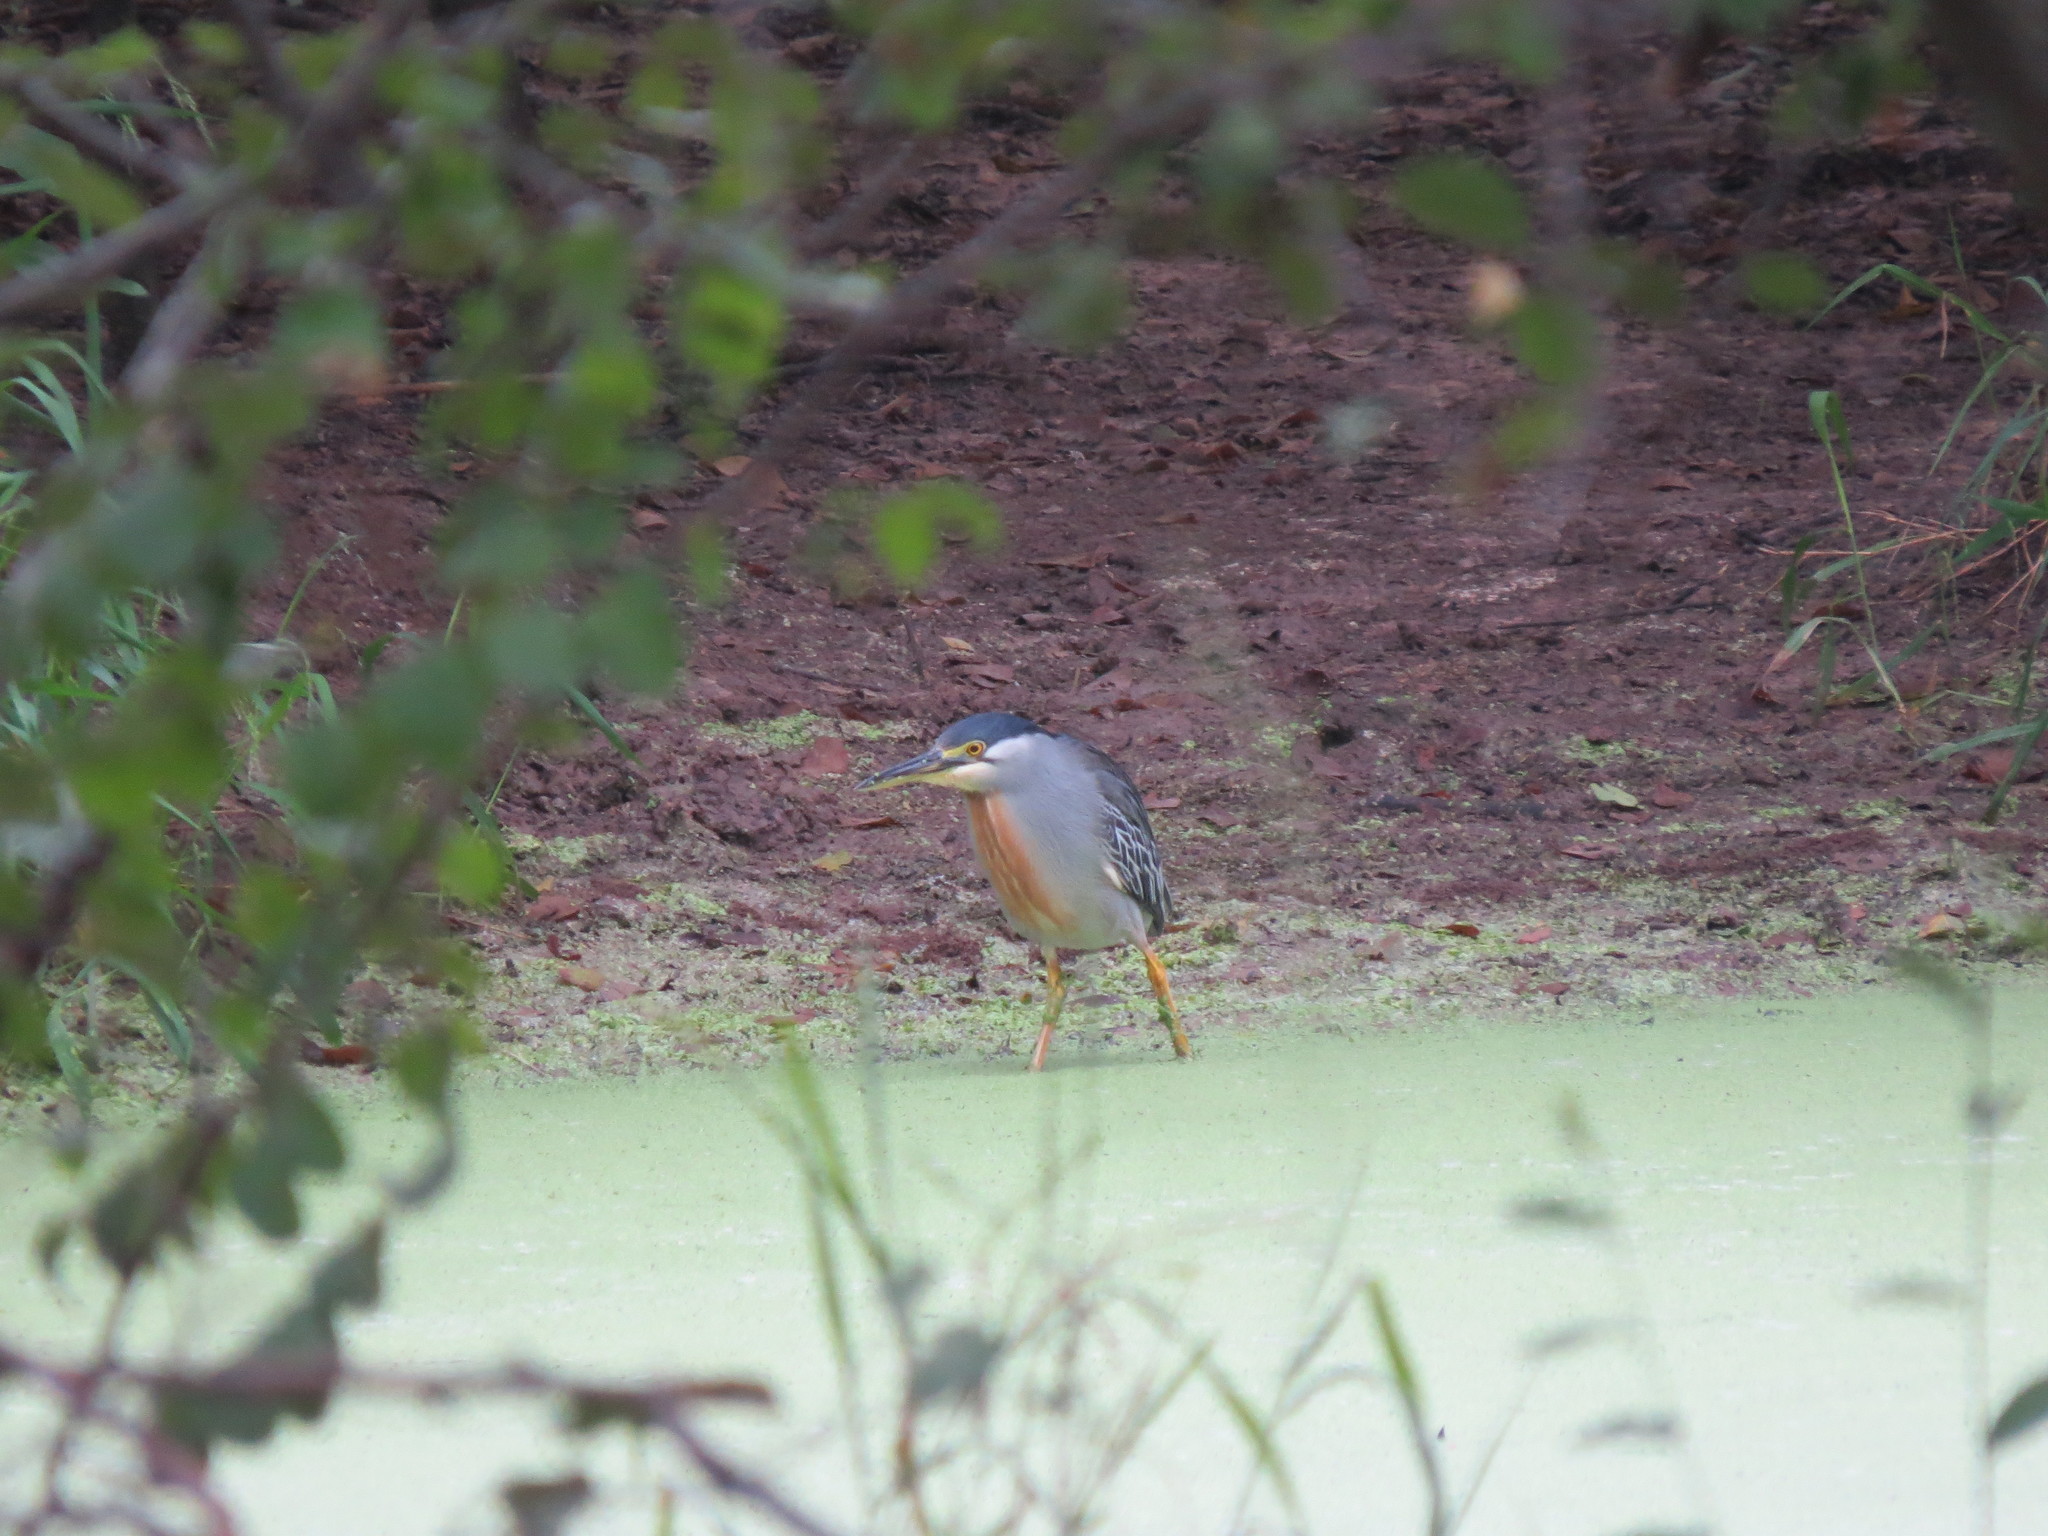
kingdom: Animalia
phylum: Chordata
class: Aves
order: Pelecaniformes
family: Ardeidae
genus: Butorides
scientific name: Butorides striata
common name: Striated heron
